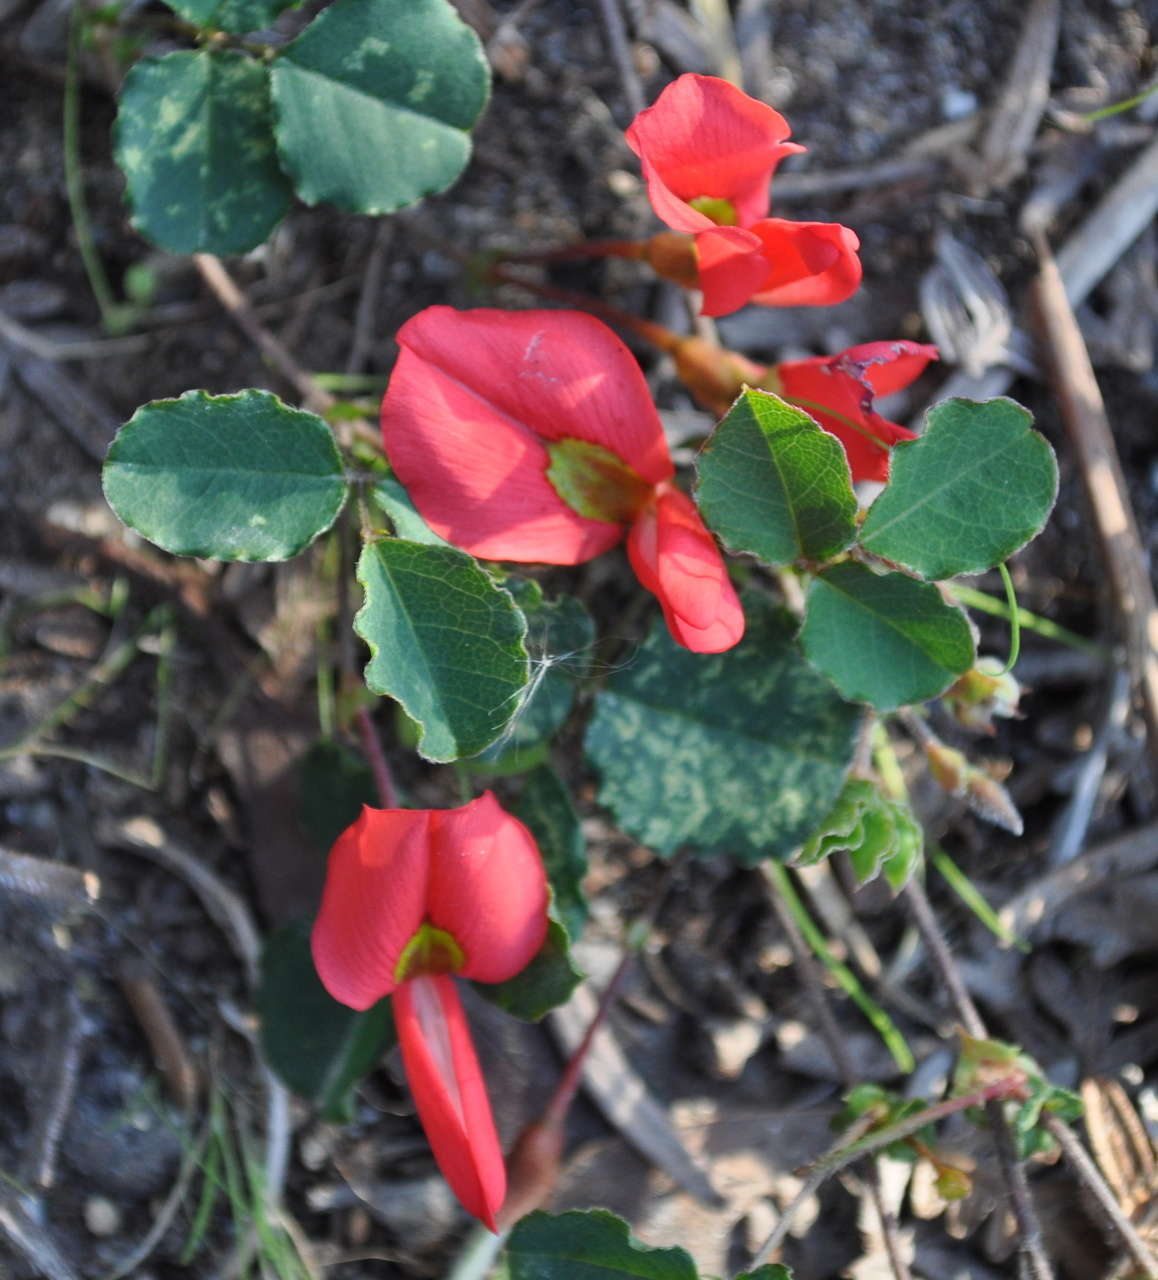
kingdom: Plantae
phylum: Tracheophyta
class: Magnoliopsida
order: Fabales
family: Fabaceae
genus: Kennedia
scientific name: Kennedia prostrata
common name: Running-postman
